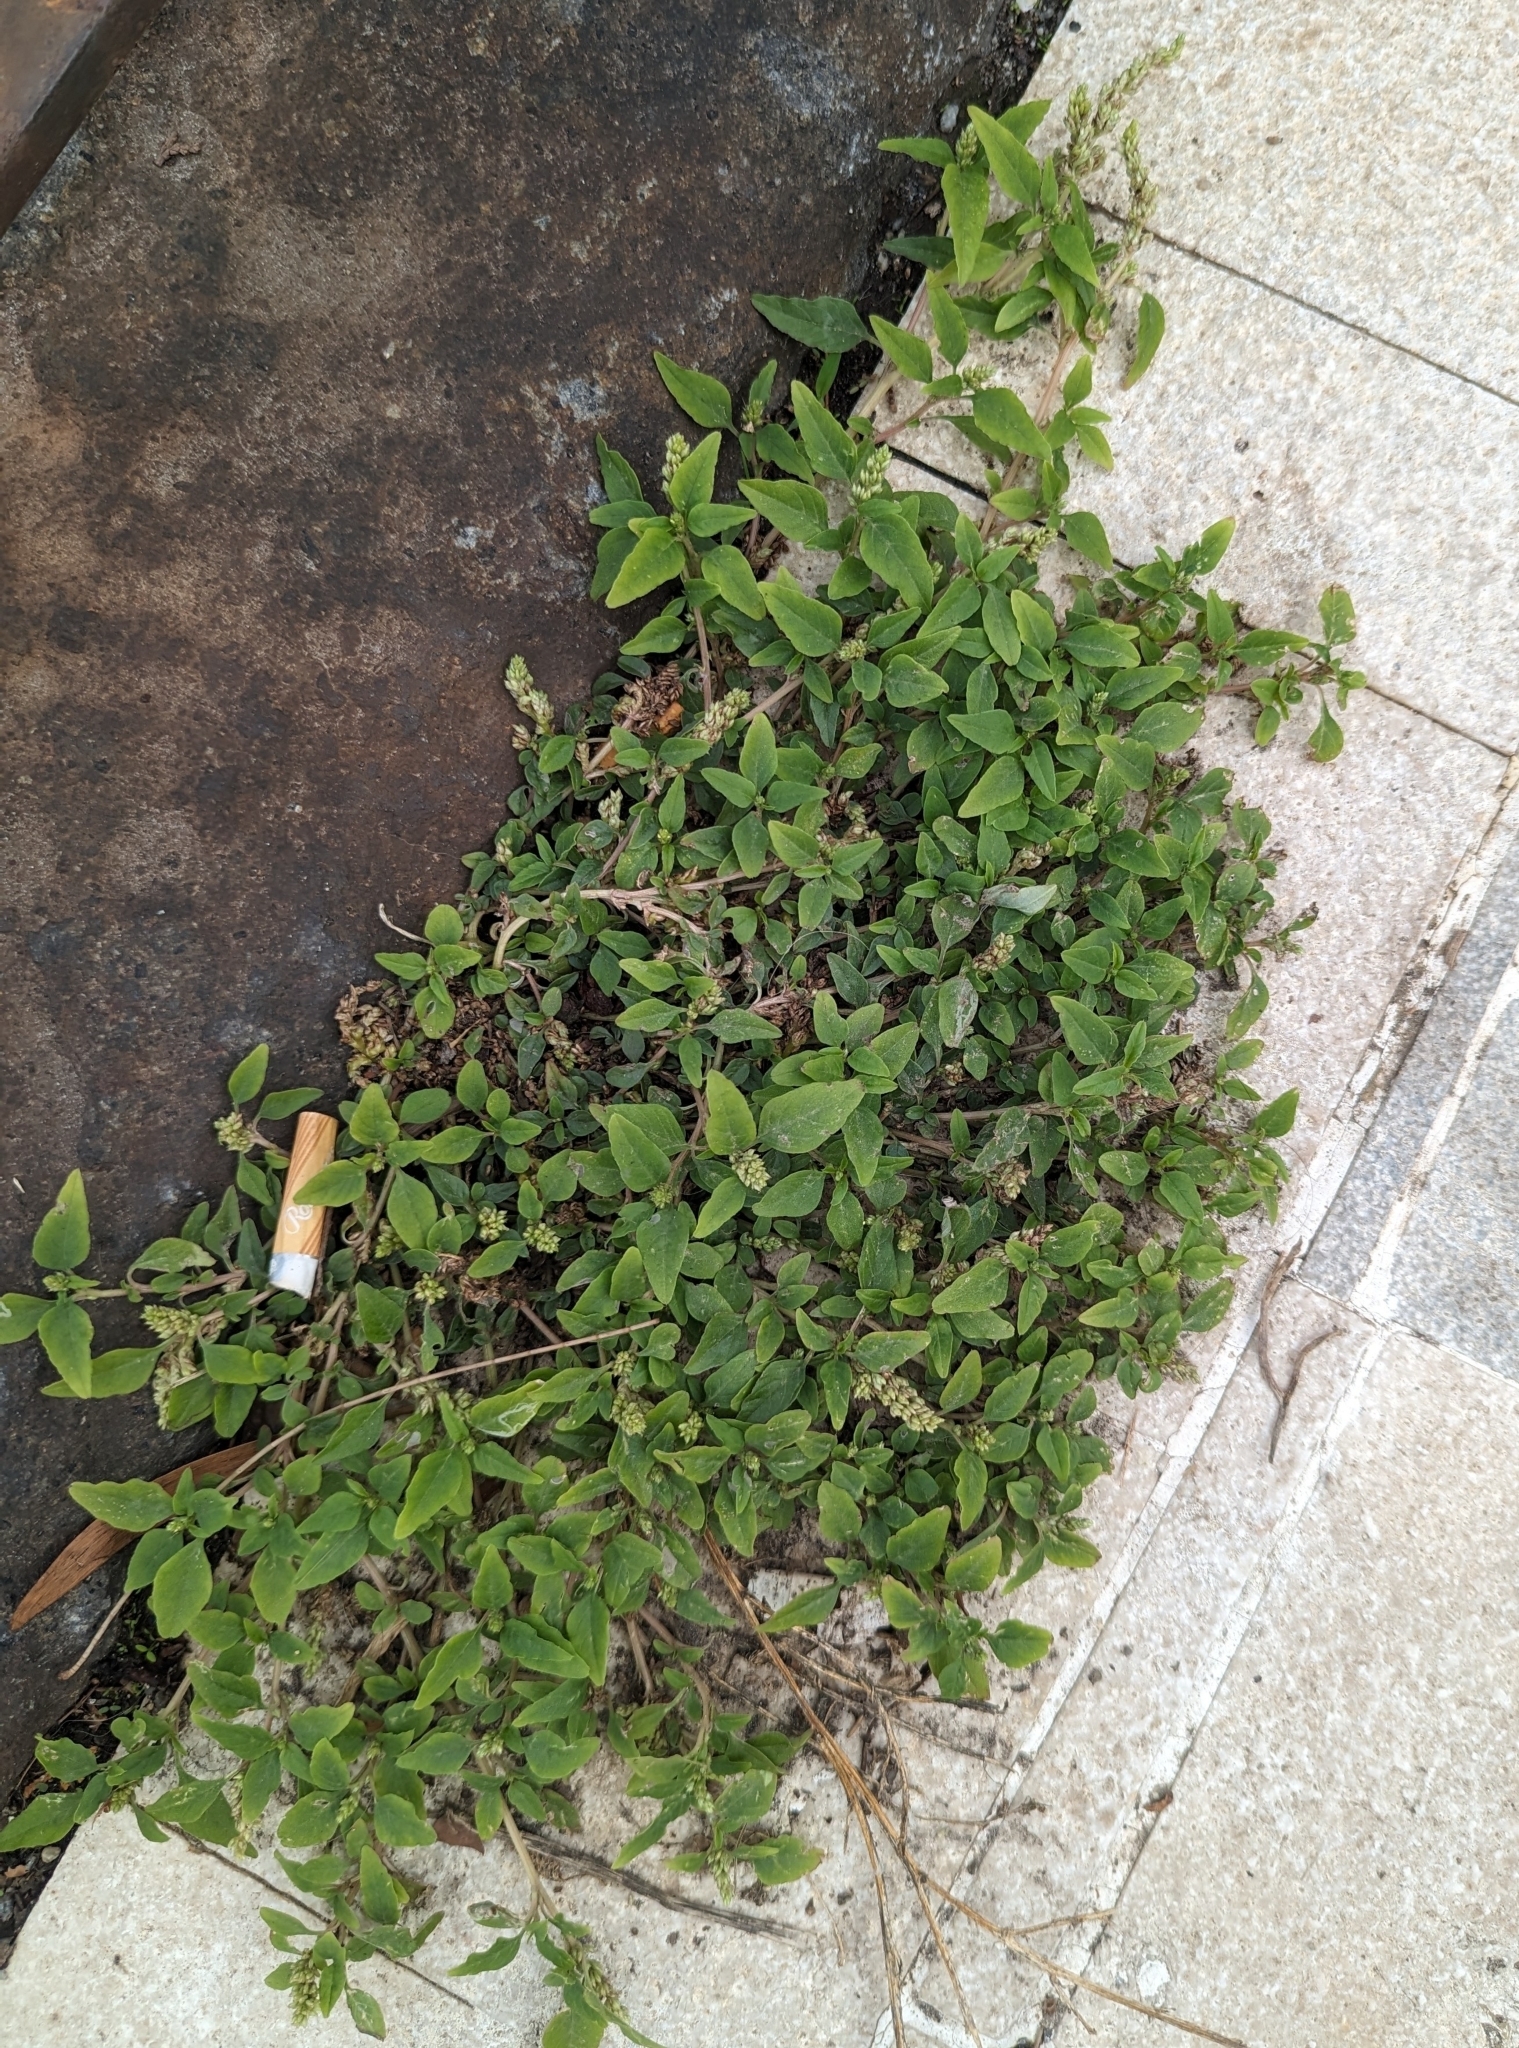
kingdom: Plantae
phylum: Tracheophyta
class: Magnoliopsida
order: Caryophyllales
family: Amaranthaceae
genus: Amaranthus
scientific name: Amaranthus deflexus
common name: Perennial pigweed
